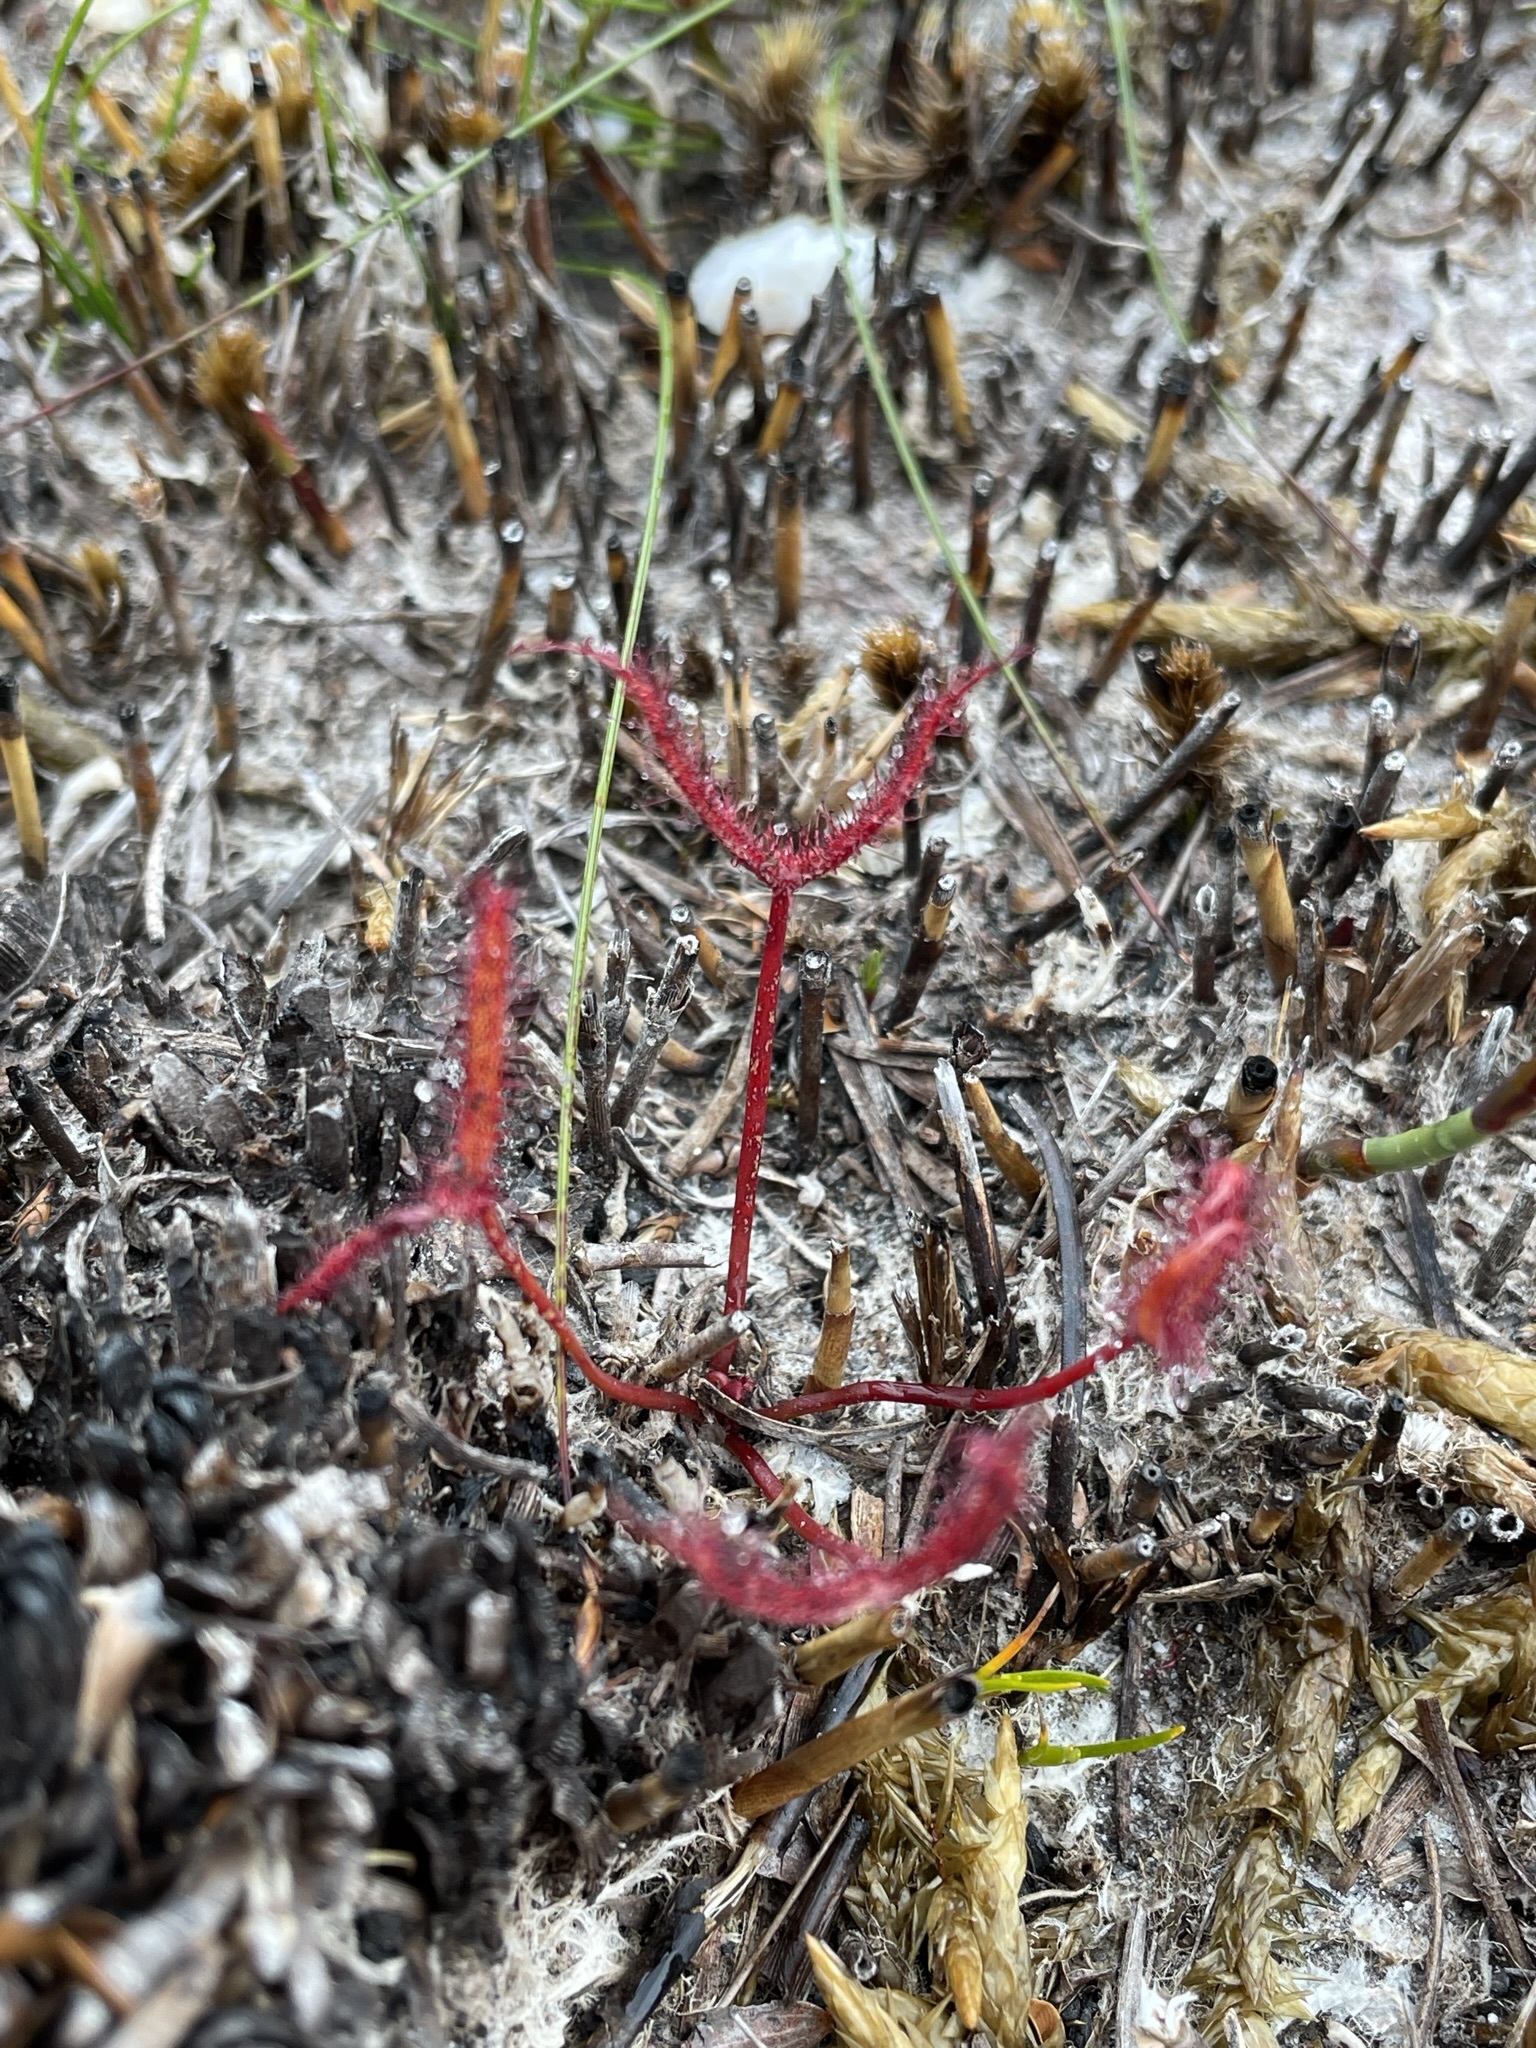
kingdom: Plantae
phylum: Tracheophyta
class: Magnoliopsida
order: Caryophyllales
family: Droseraceae
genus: Drosera
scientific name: Drosera binata
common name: Forked sundew
